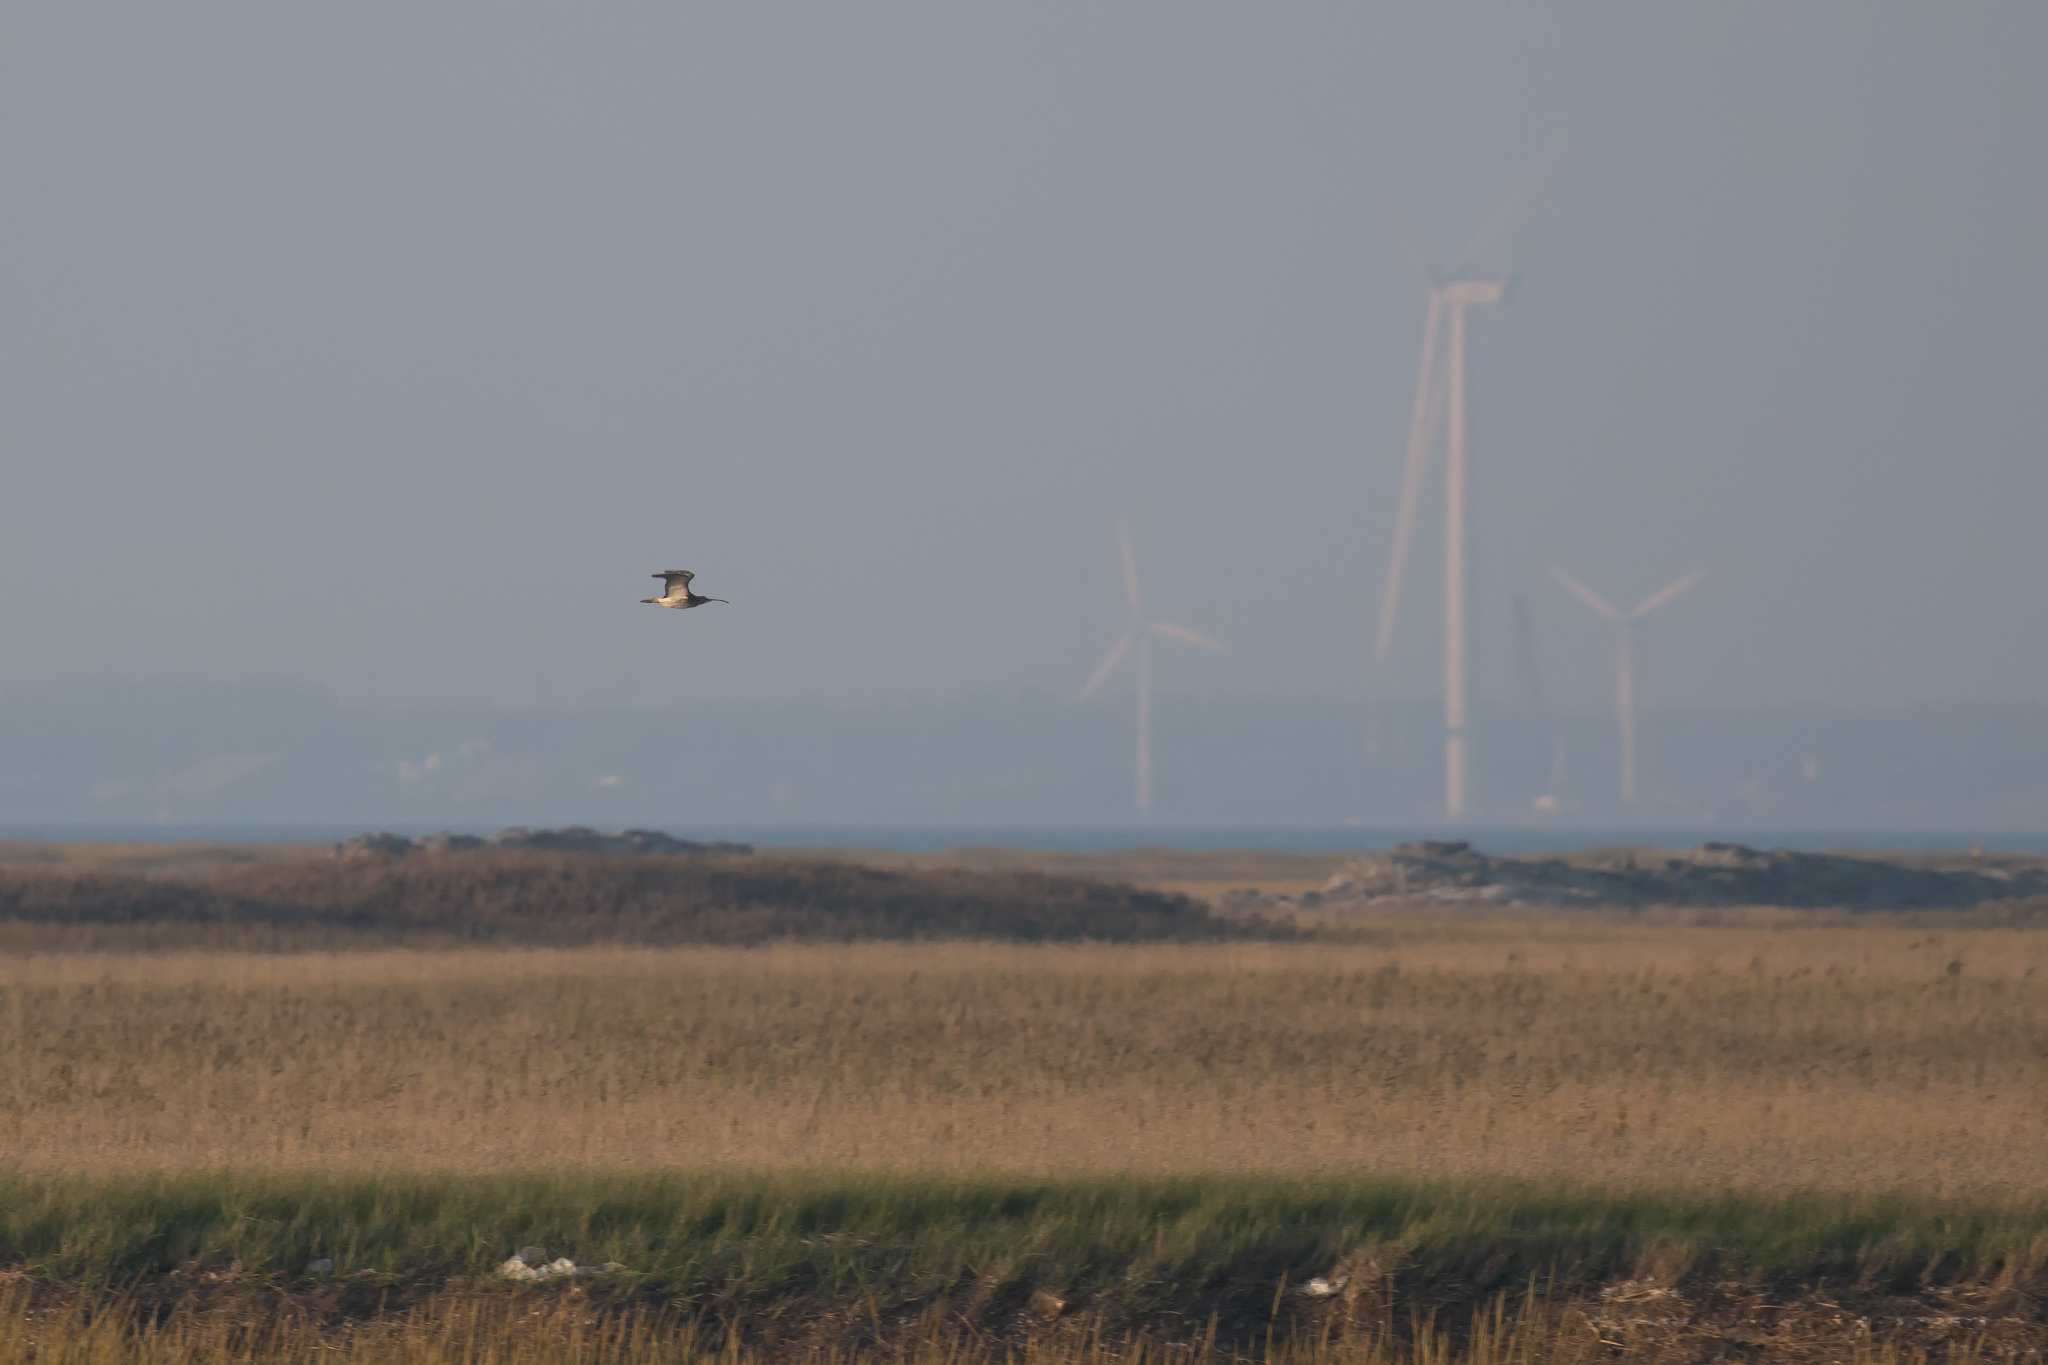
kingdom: Animalia
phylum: Chordata
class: Aves
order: Charadriiformes
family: Scolopacidae
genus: Numenius
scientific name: Numenius arquata
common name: Eurasian curlew
